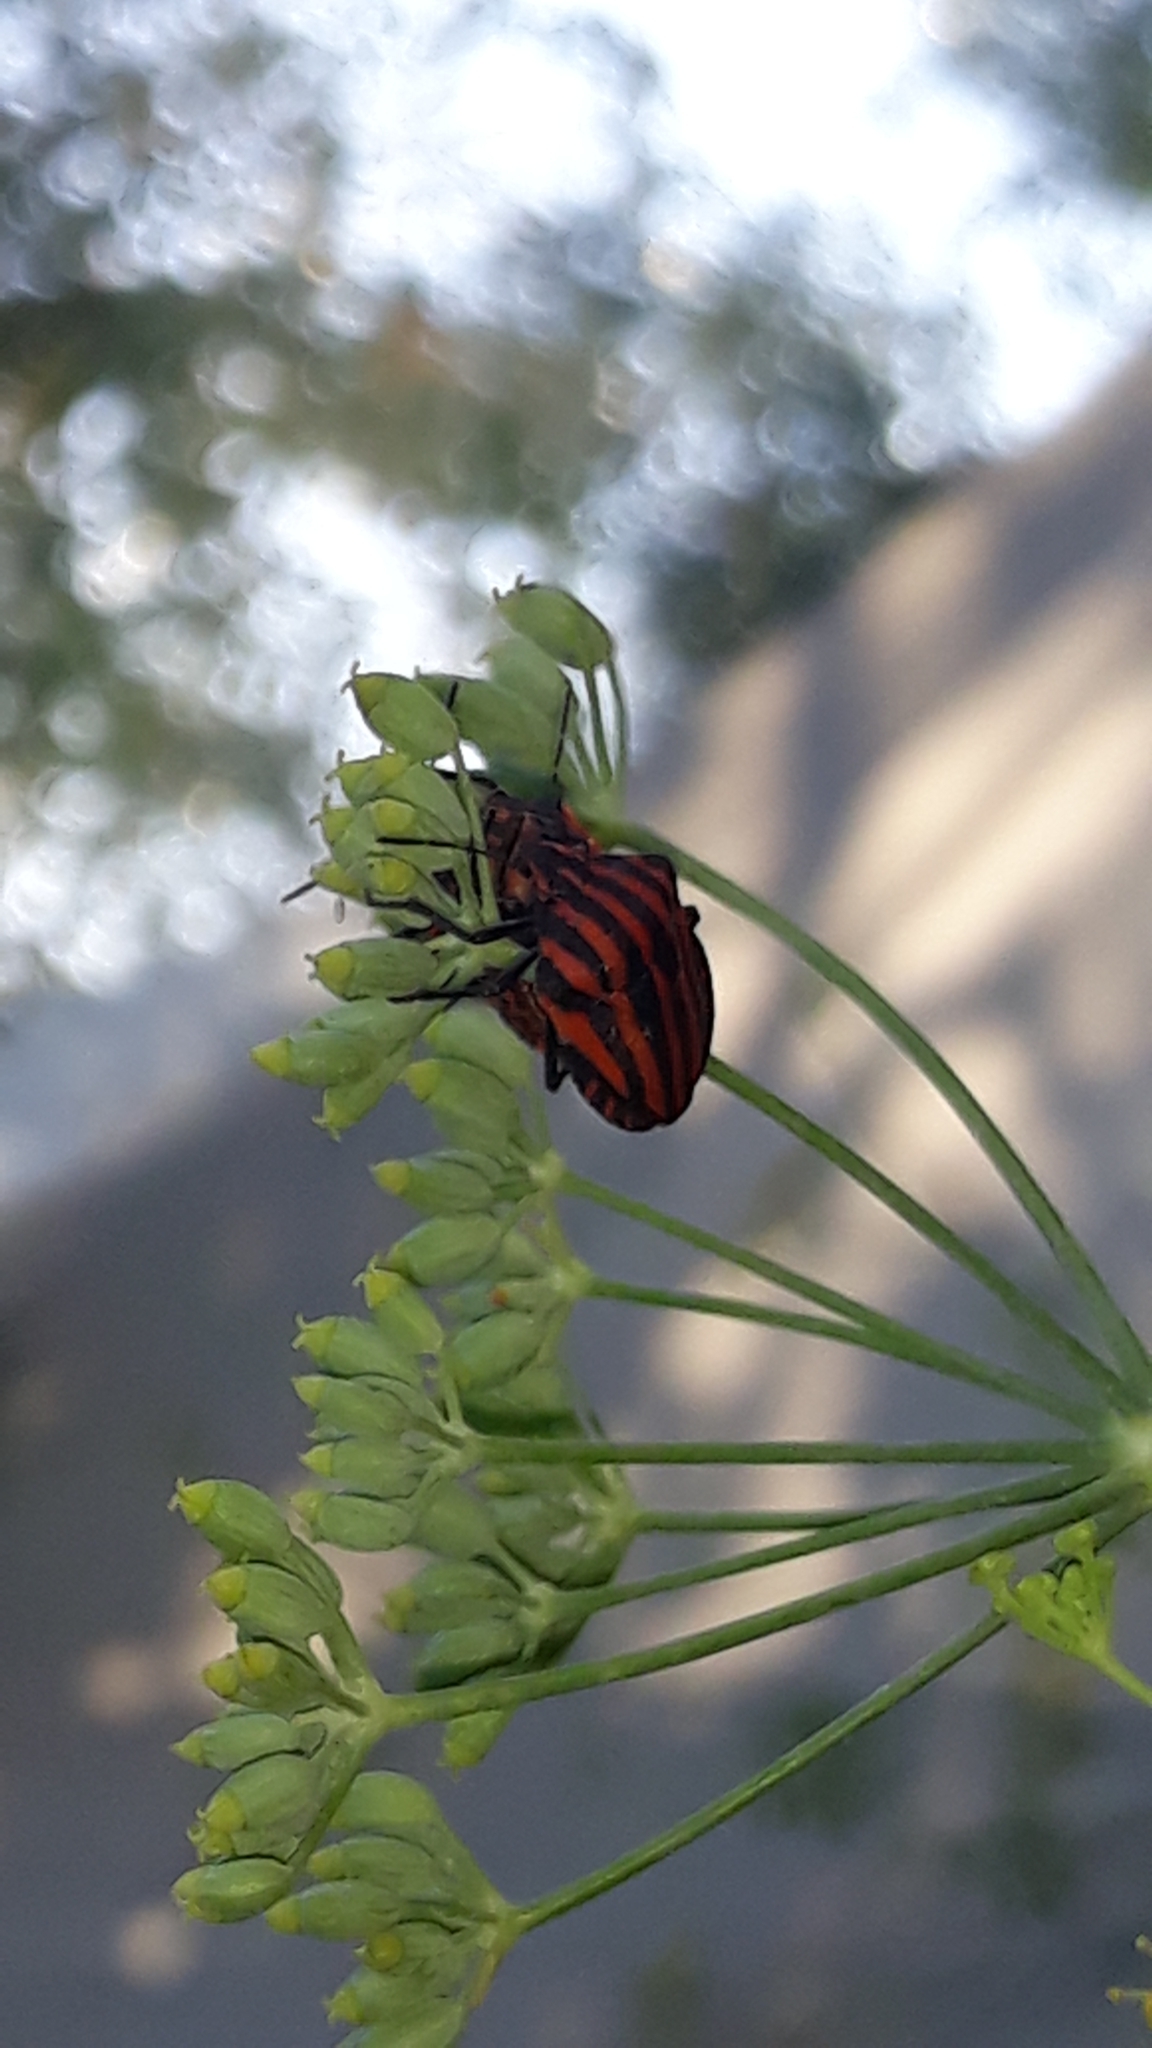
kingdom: Animalia
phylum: Arthropoda
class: Insecta
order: Hemiptera
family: Pentatomidae
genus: Graphosoma
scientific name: Graphosoma italicum
